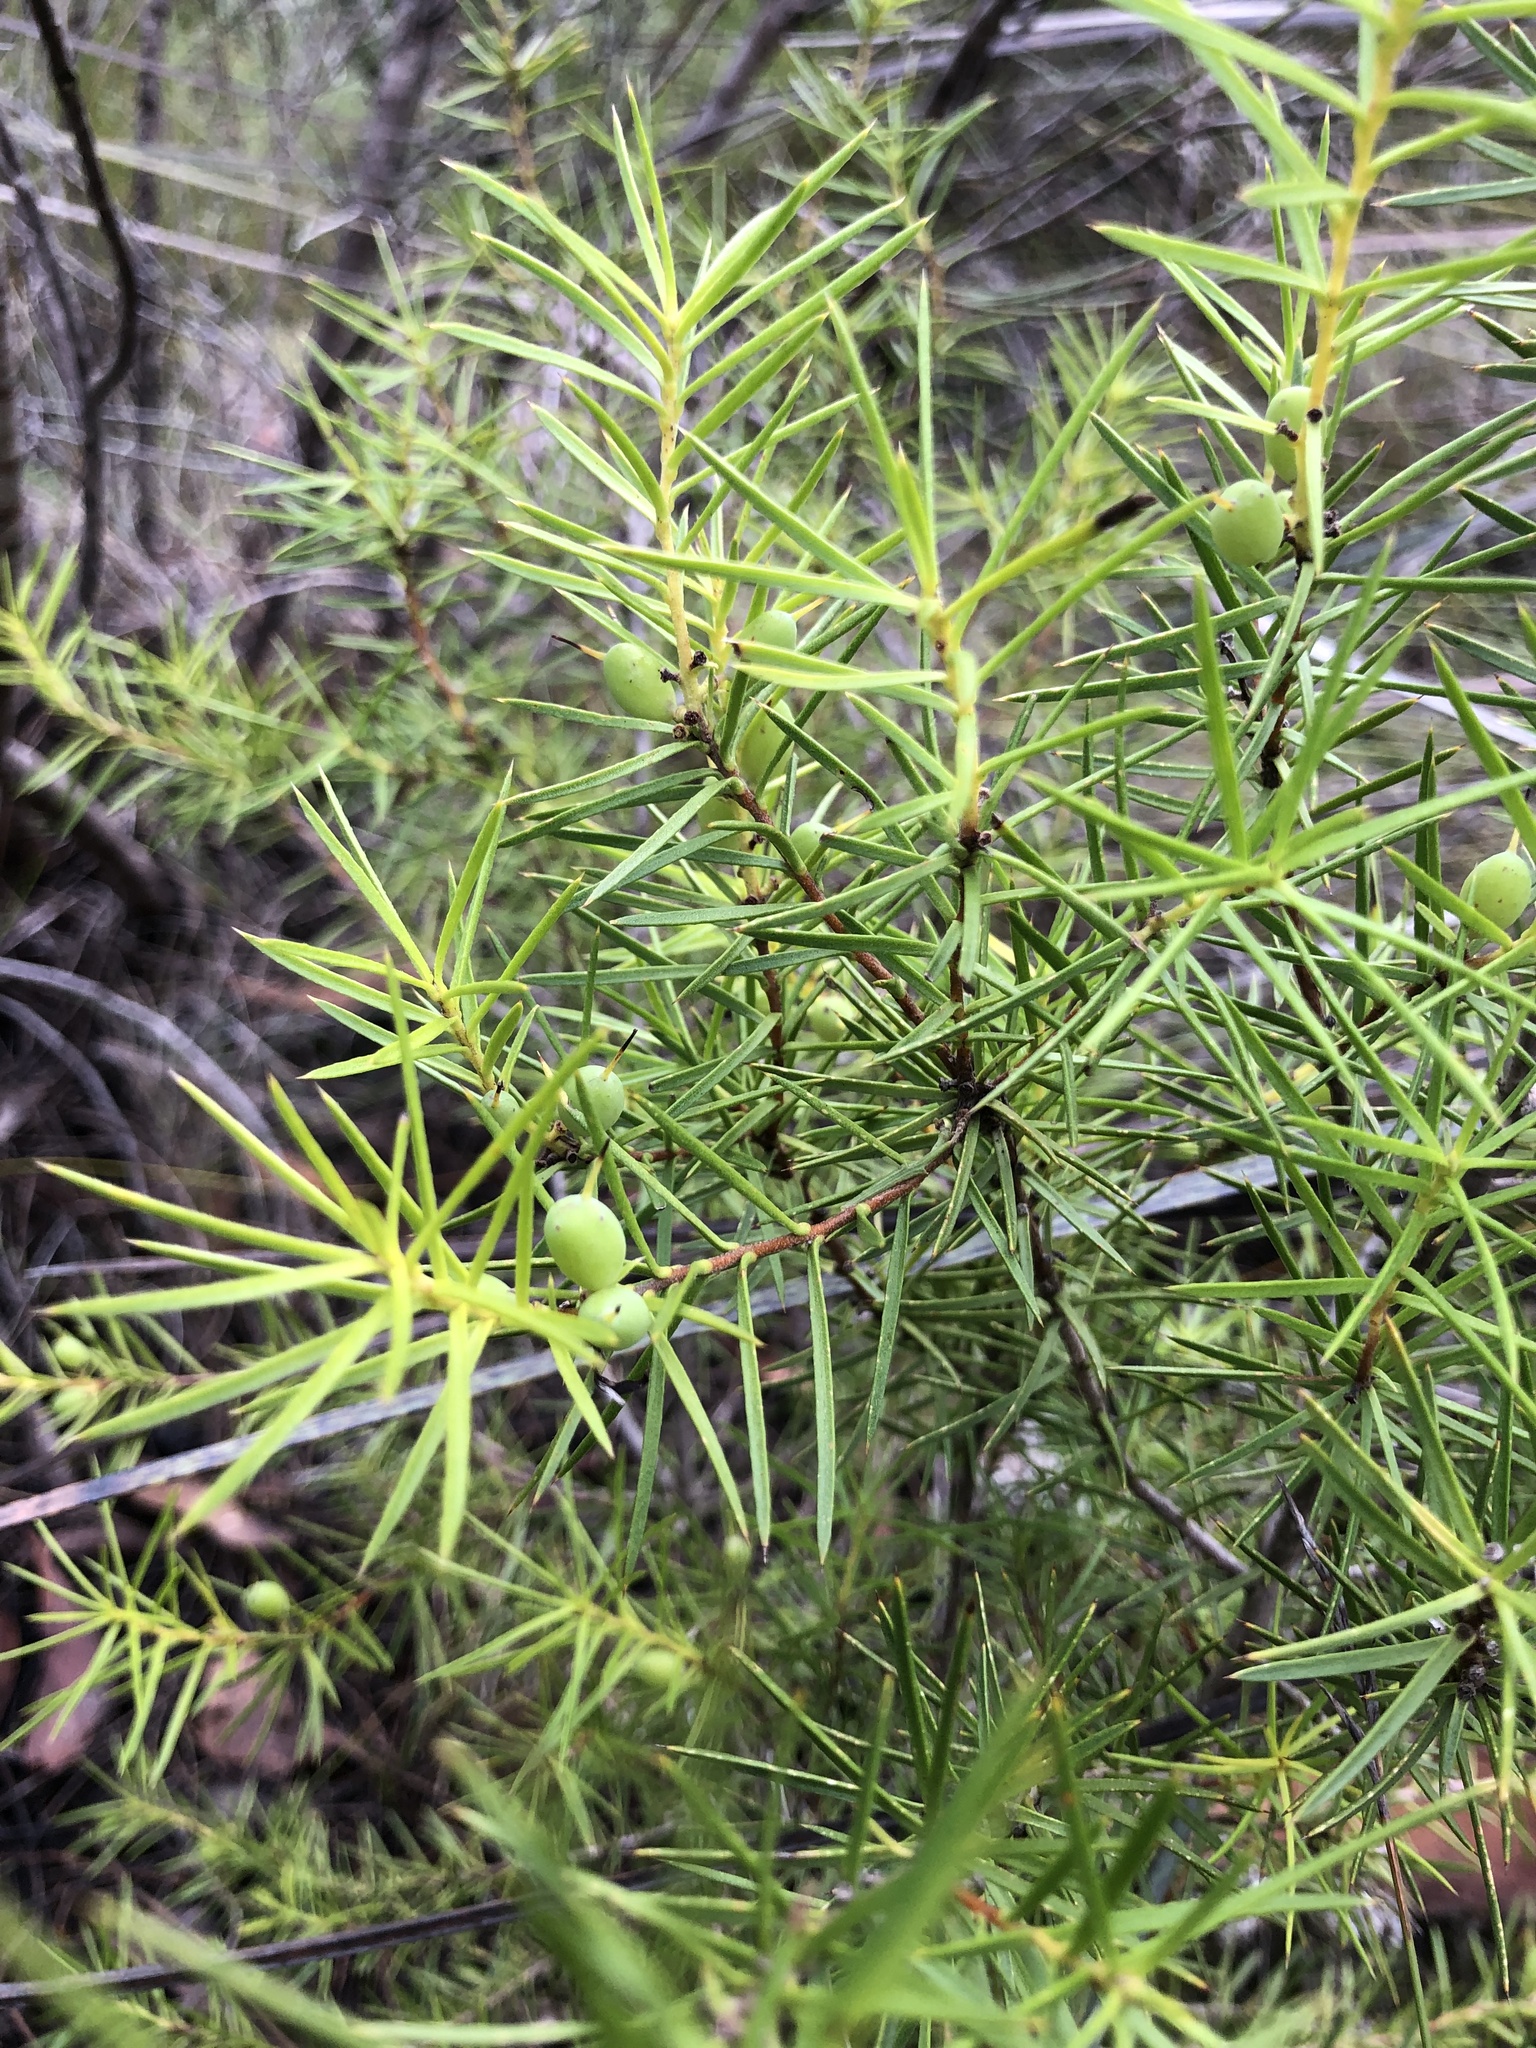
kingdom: Plantae
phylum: Tracheophyta
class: Magnoliopsida
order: Proteales
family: Proteaceae
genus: Persoonia
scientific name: Persoonia juniperina
